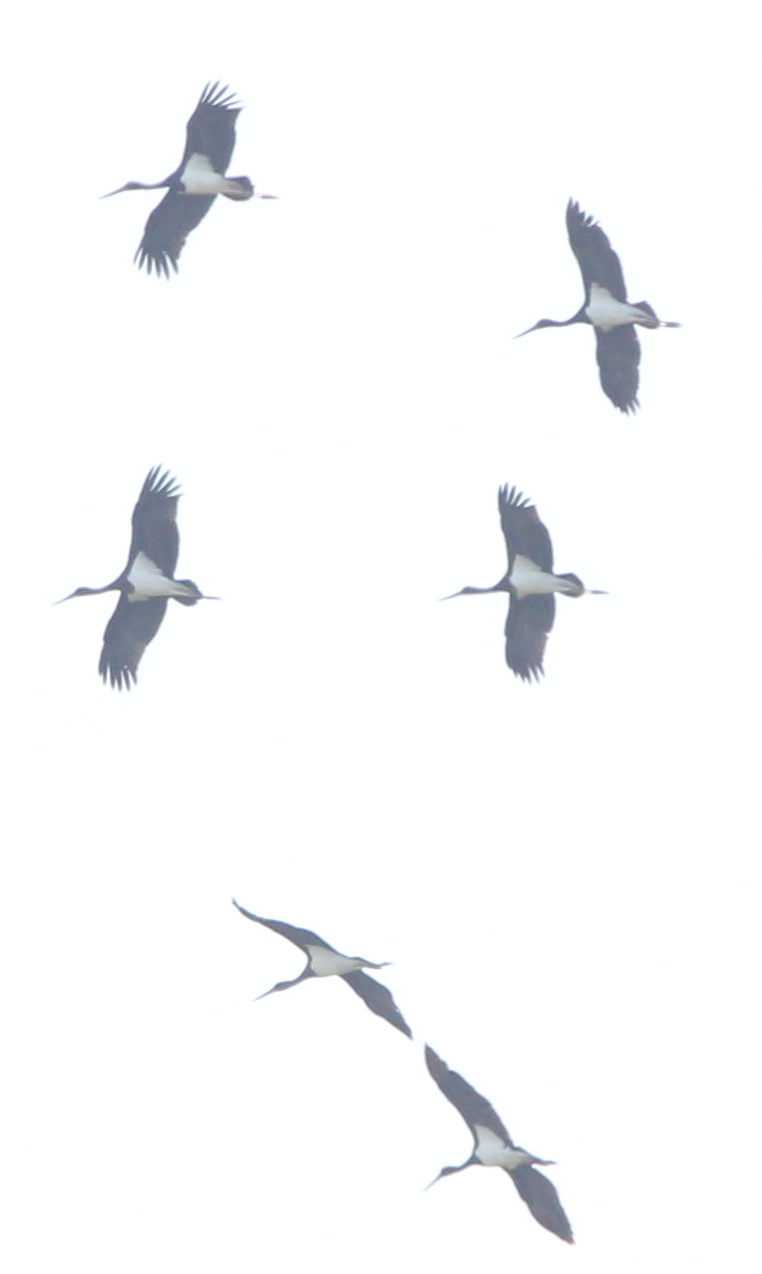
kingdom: Animalia
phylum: Chordata
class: Aves
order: Ciconiiformes
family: Ciconiidae
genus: Ciconia
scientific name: Ciconia nigra
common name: Black stork
